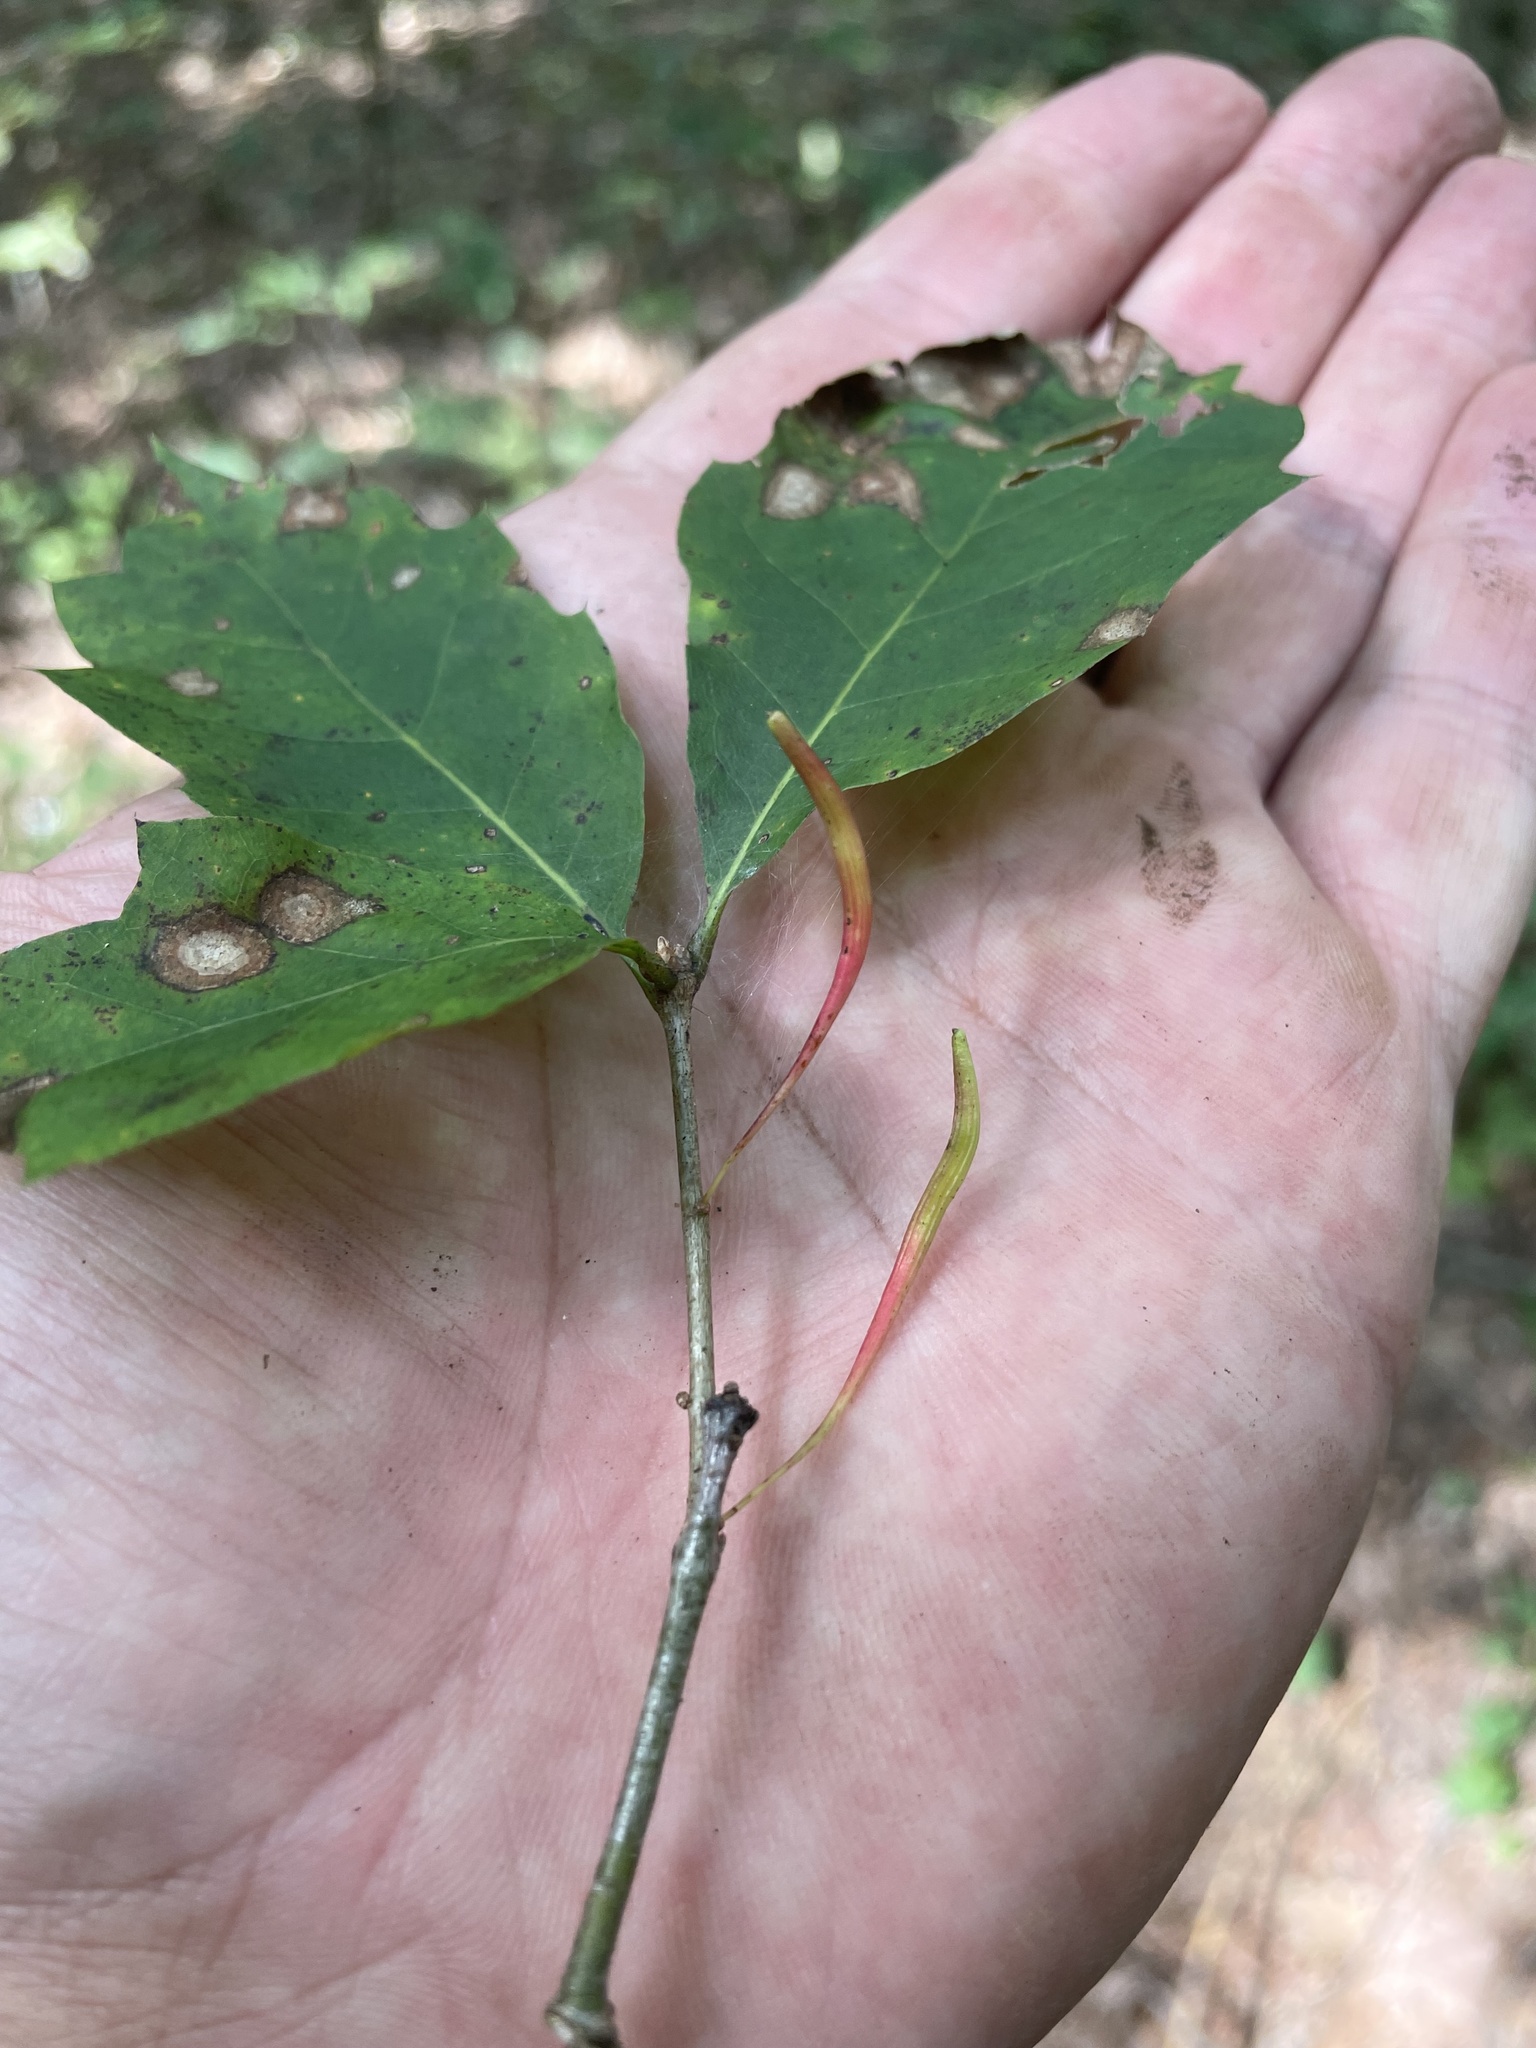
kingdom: Animalia
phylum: Arthropoda
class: Insecta
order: Hymenoptera
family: Cynipidae
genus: Callirhytis
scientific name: Callirhytis
